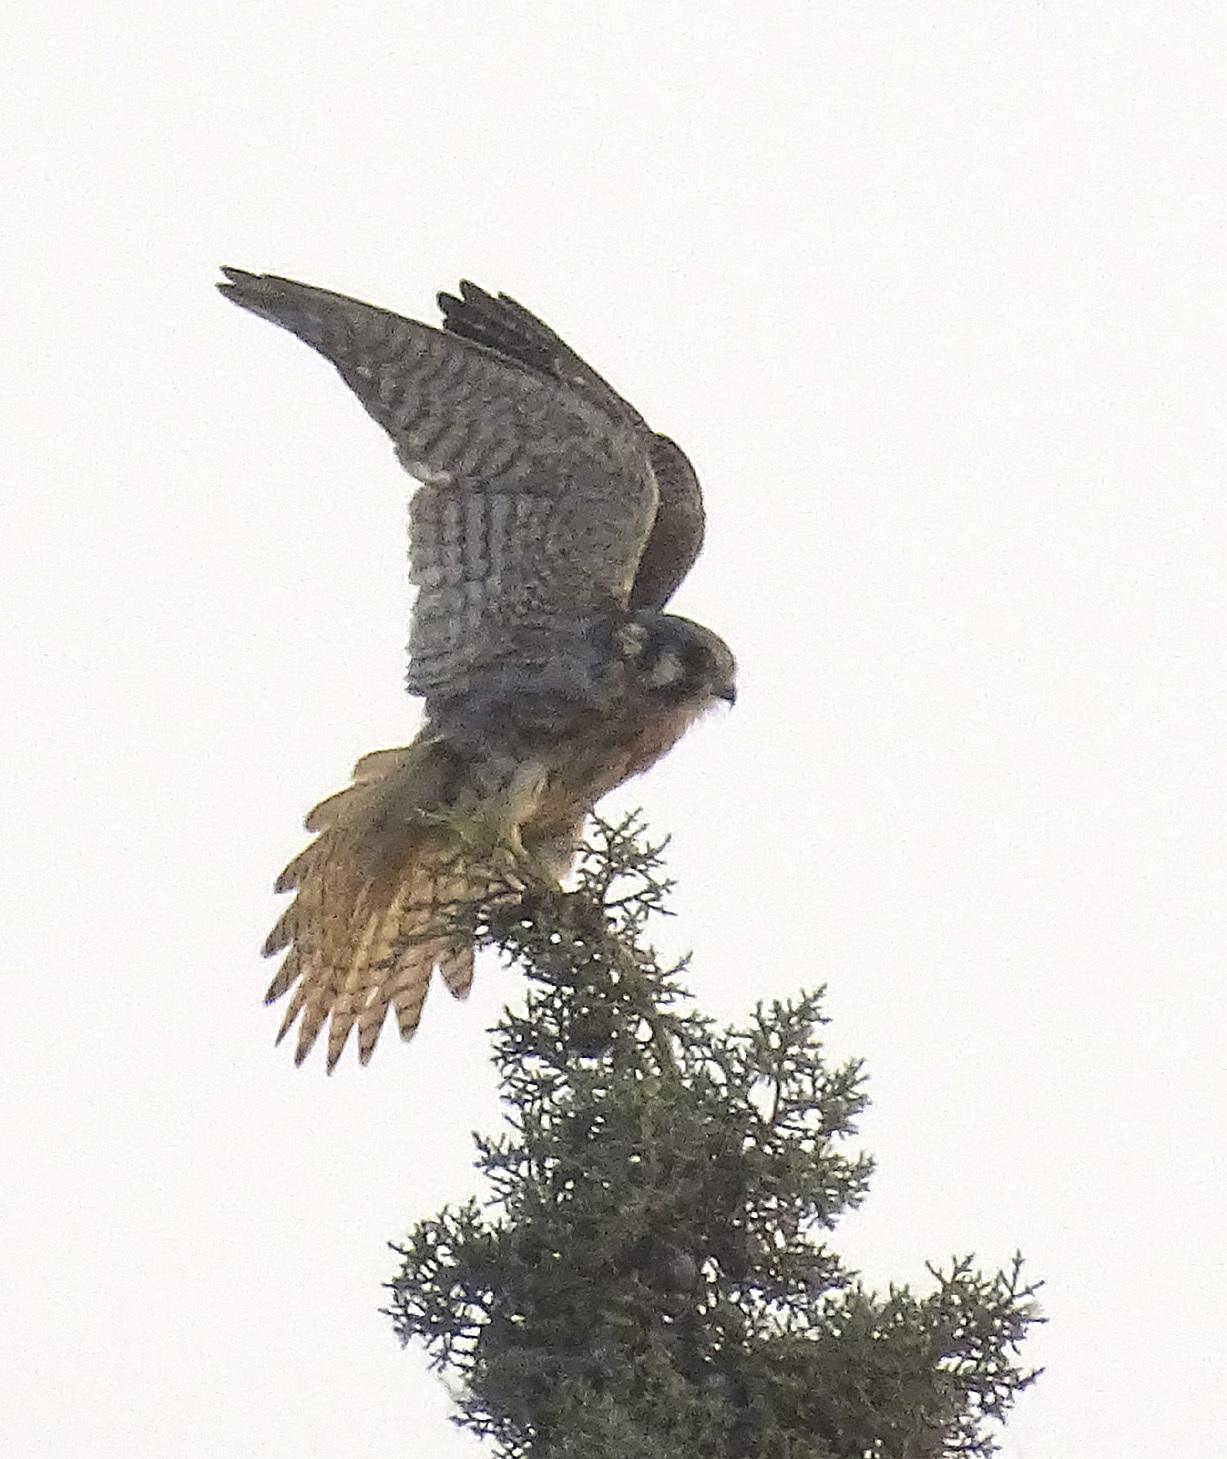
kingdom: Animalia
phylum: Chordata
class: Aves
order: Falconiformes
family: Falconidae
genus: Falco
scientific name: Falco sparverius
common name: American kestrel
